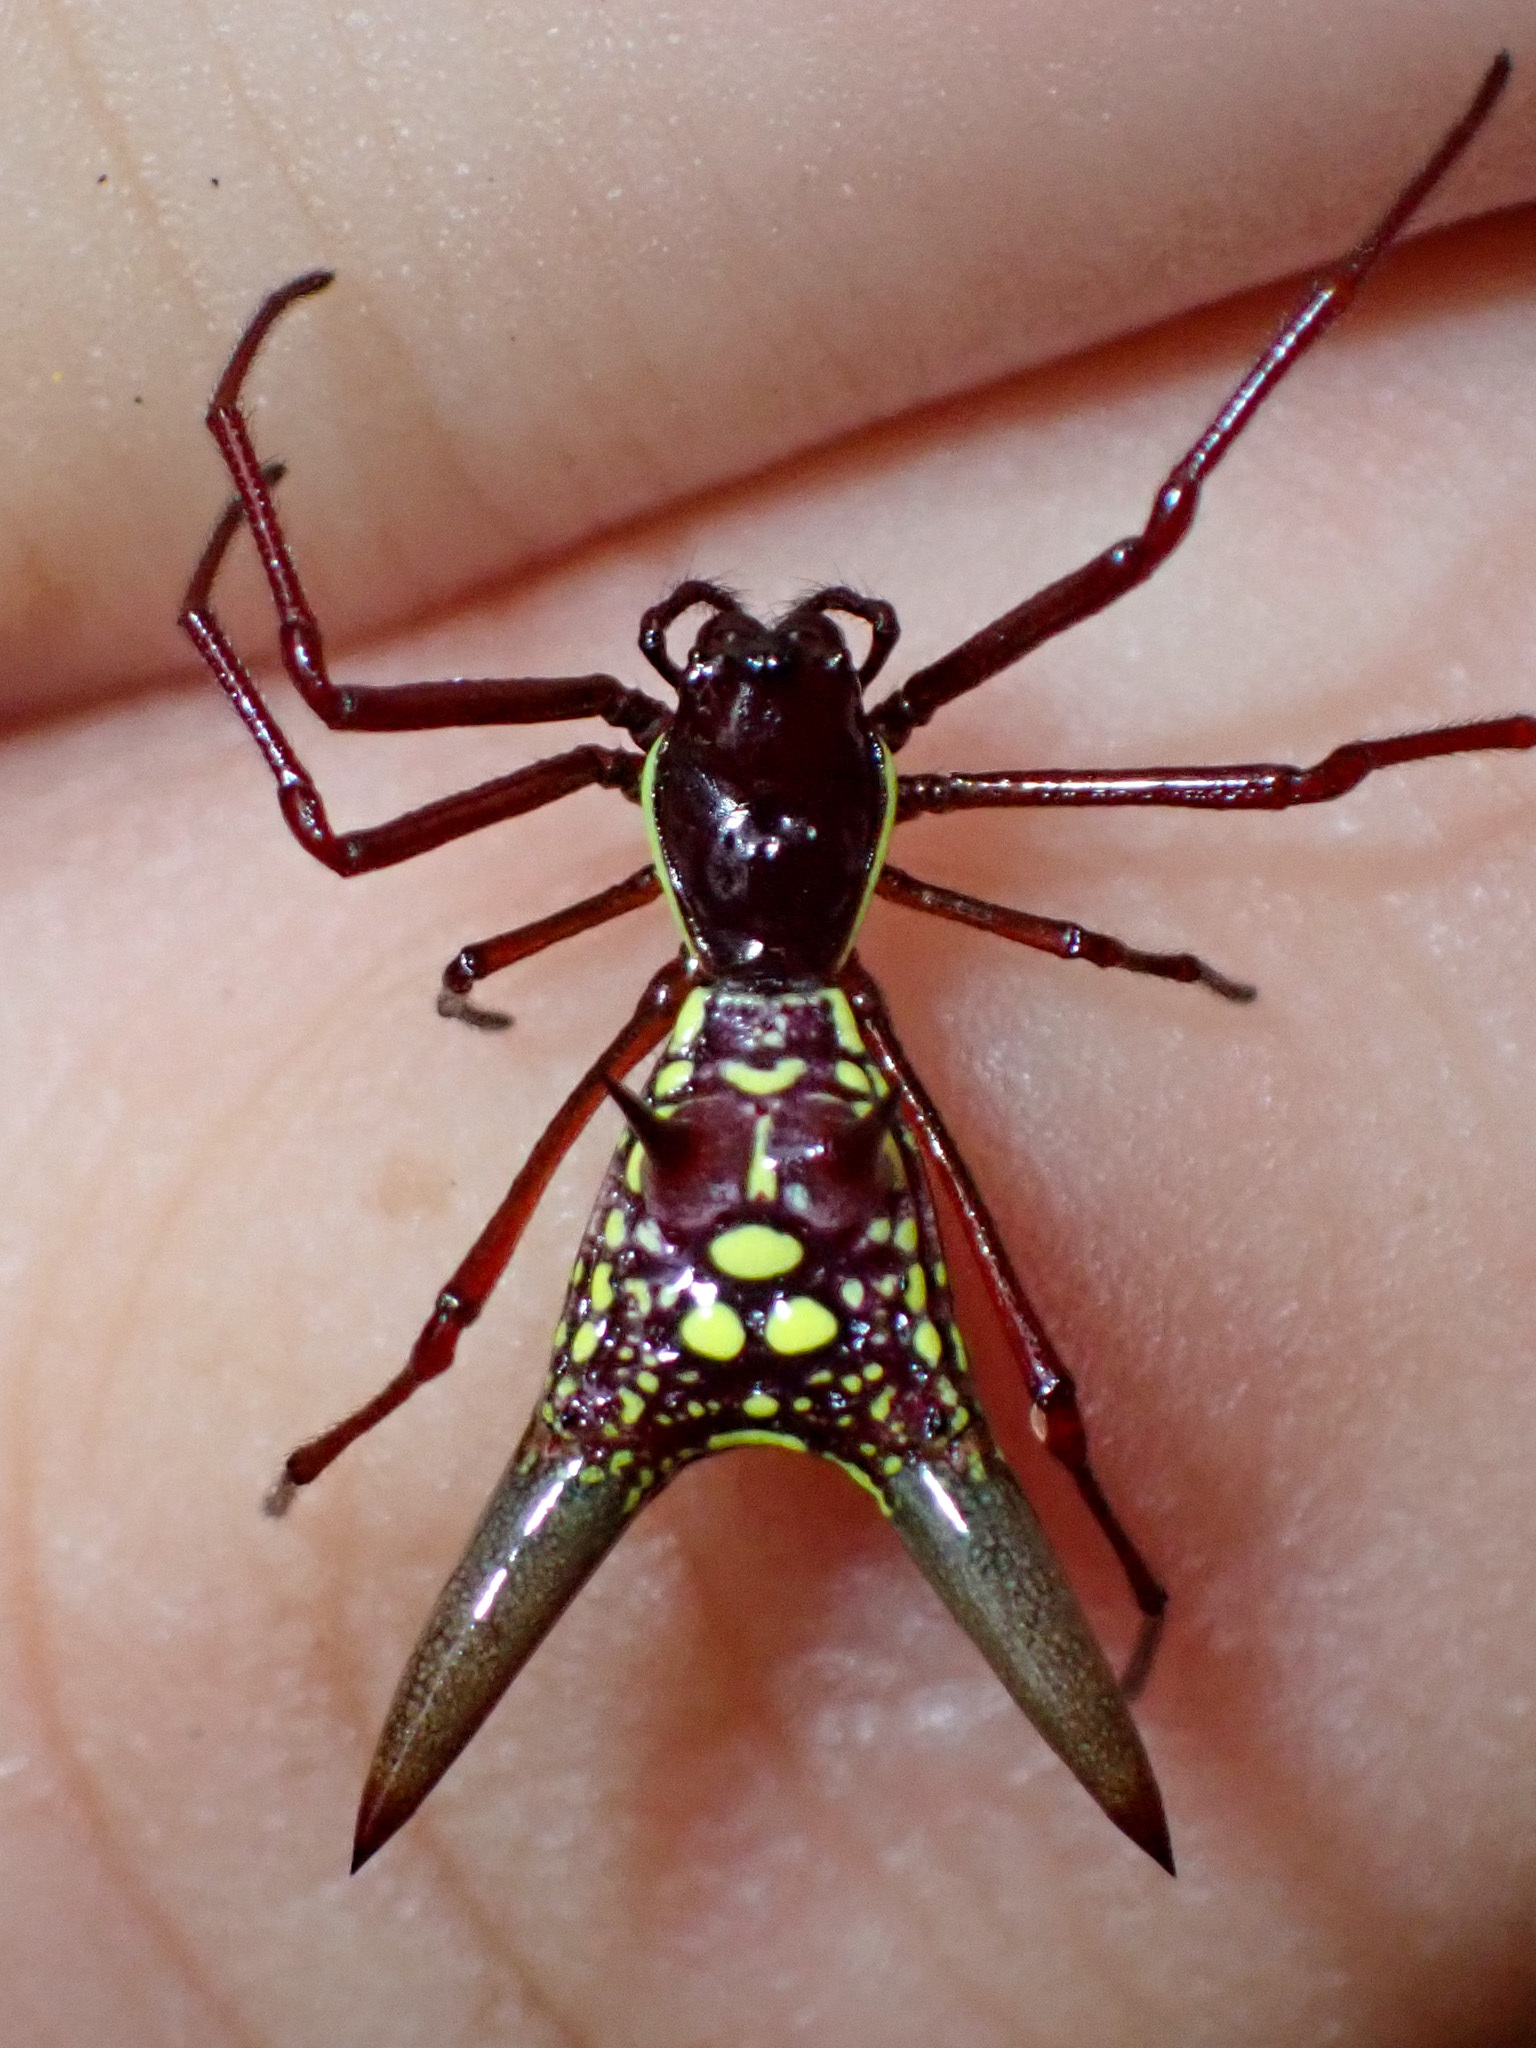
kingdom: Animalia
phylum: Arthropoda
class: Arachnida
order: Araneae
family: Araneidae
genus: Micrathena
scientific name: Micrathena sexspinosa
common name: Orb weavers
